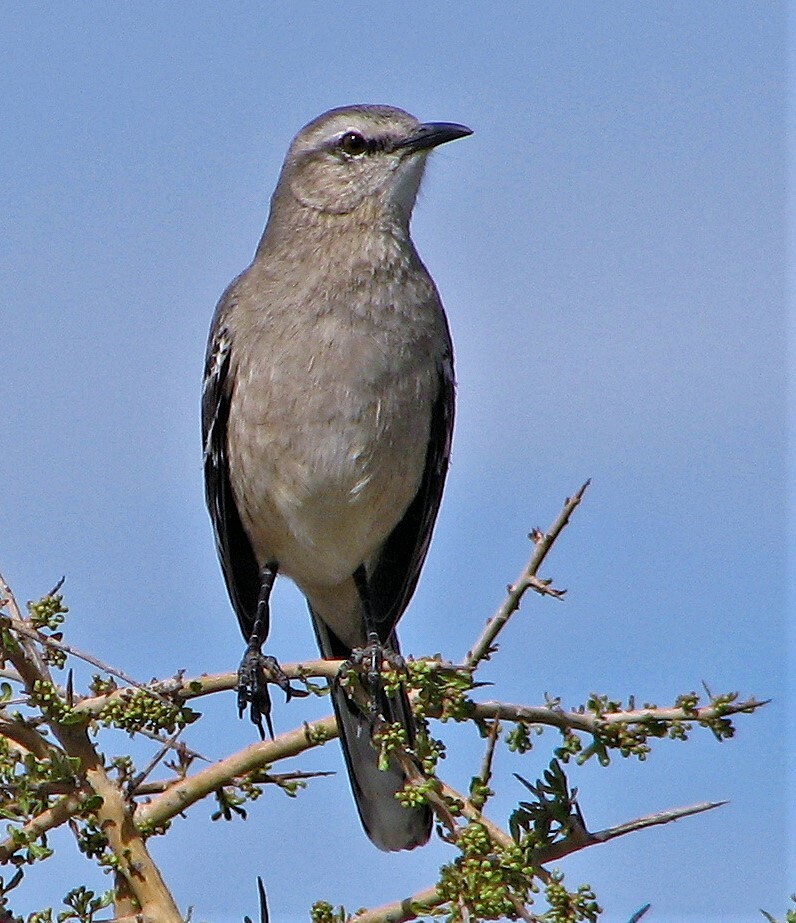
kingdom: Animalia
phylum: Chordata
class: Aves
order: Passeriformes
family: Mimidae
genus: Mimus
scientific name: Mimus patagonicus
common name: Patagonian mockingbird
